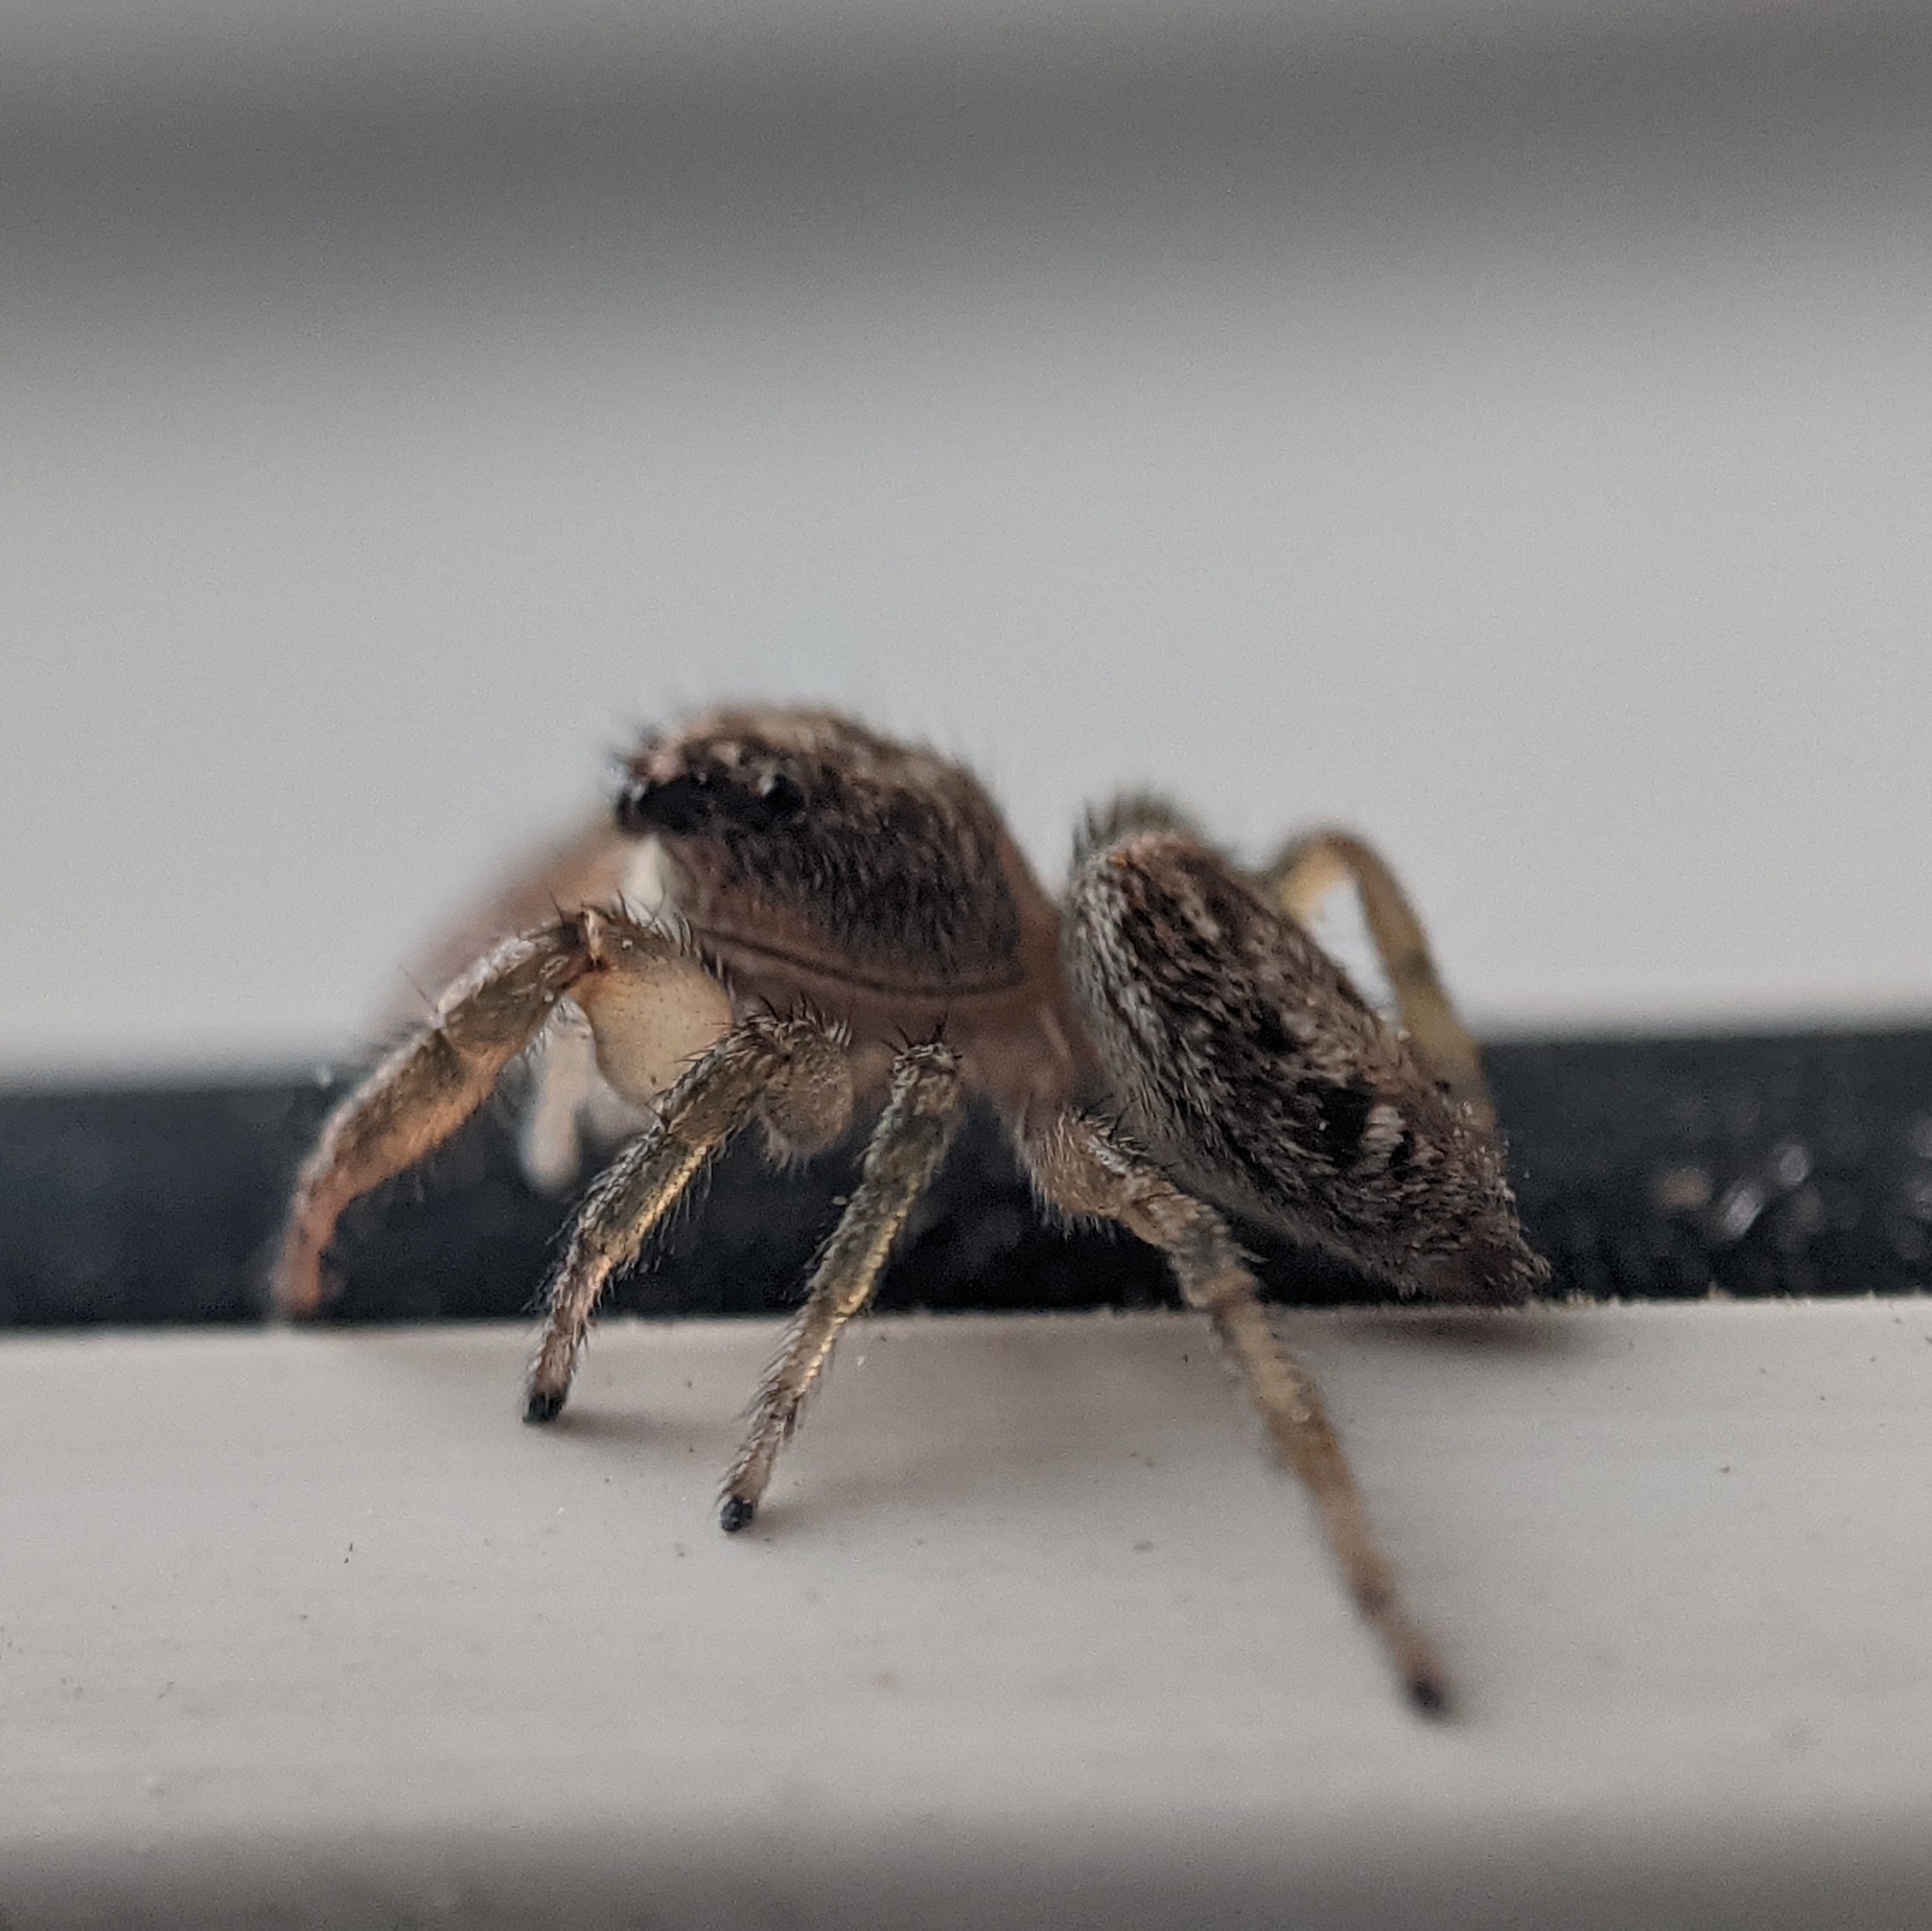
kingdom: Animalia
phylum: Arthropoda
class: Arachnida
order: Araneae
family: Salticidae
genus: Macaroeris
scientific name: Macaroeris nidicolens
